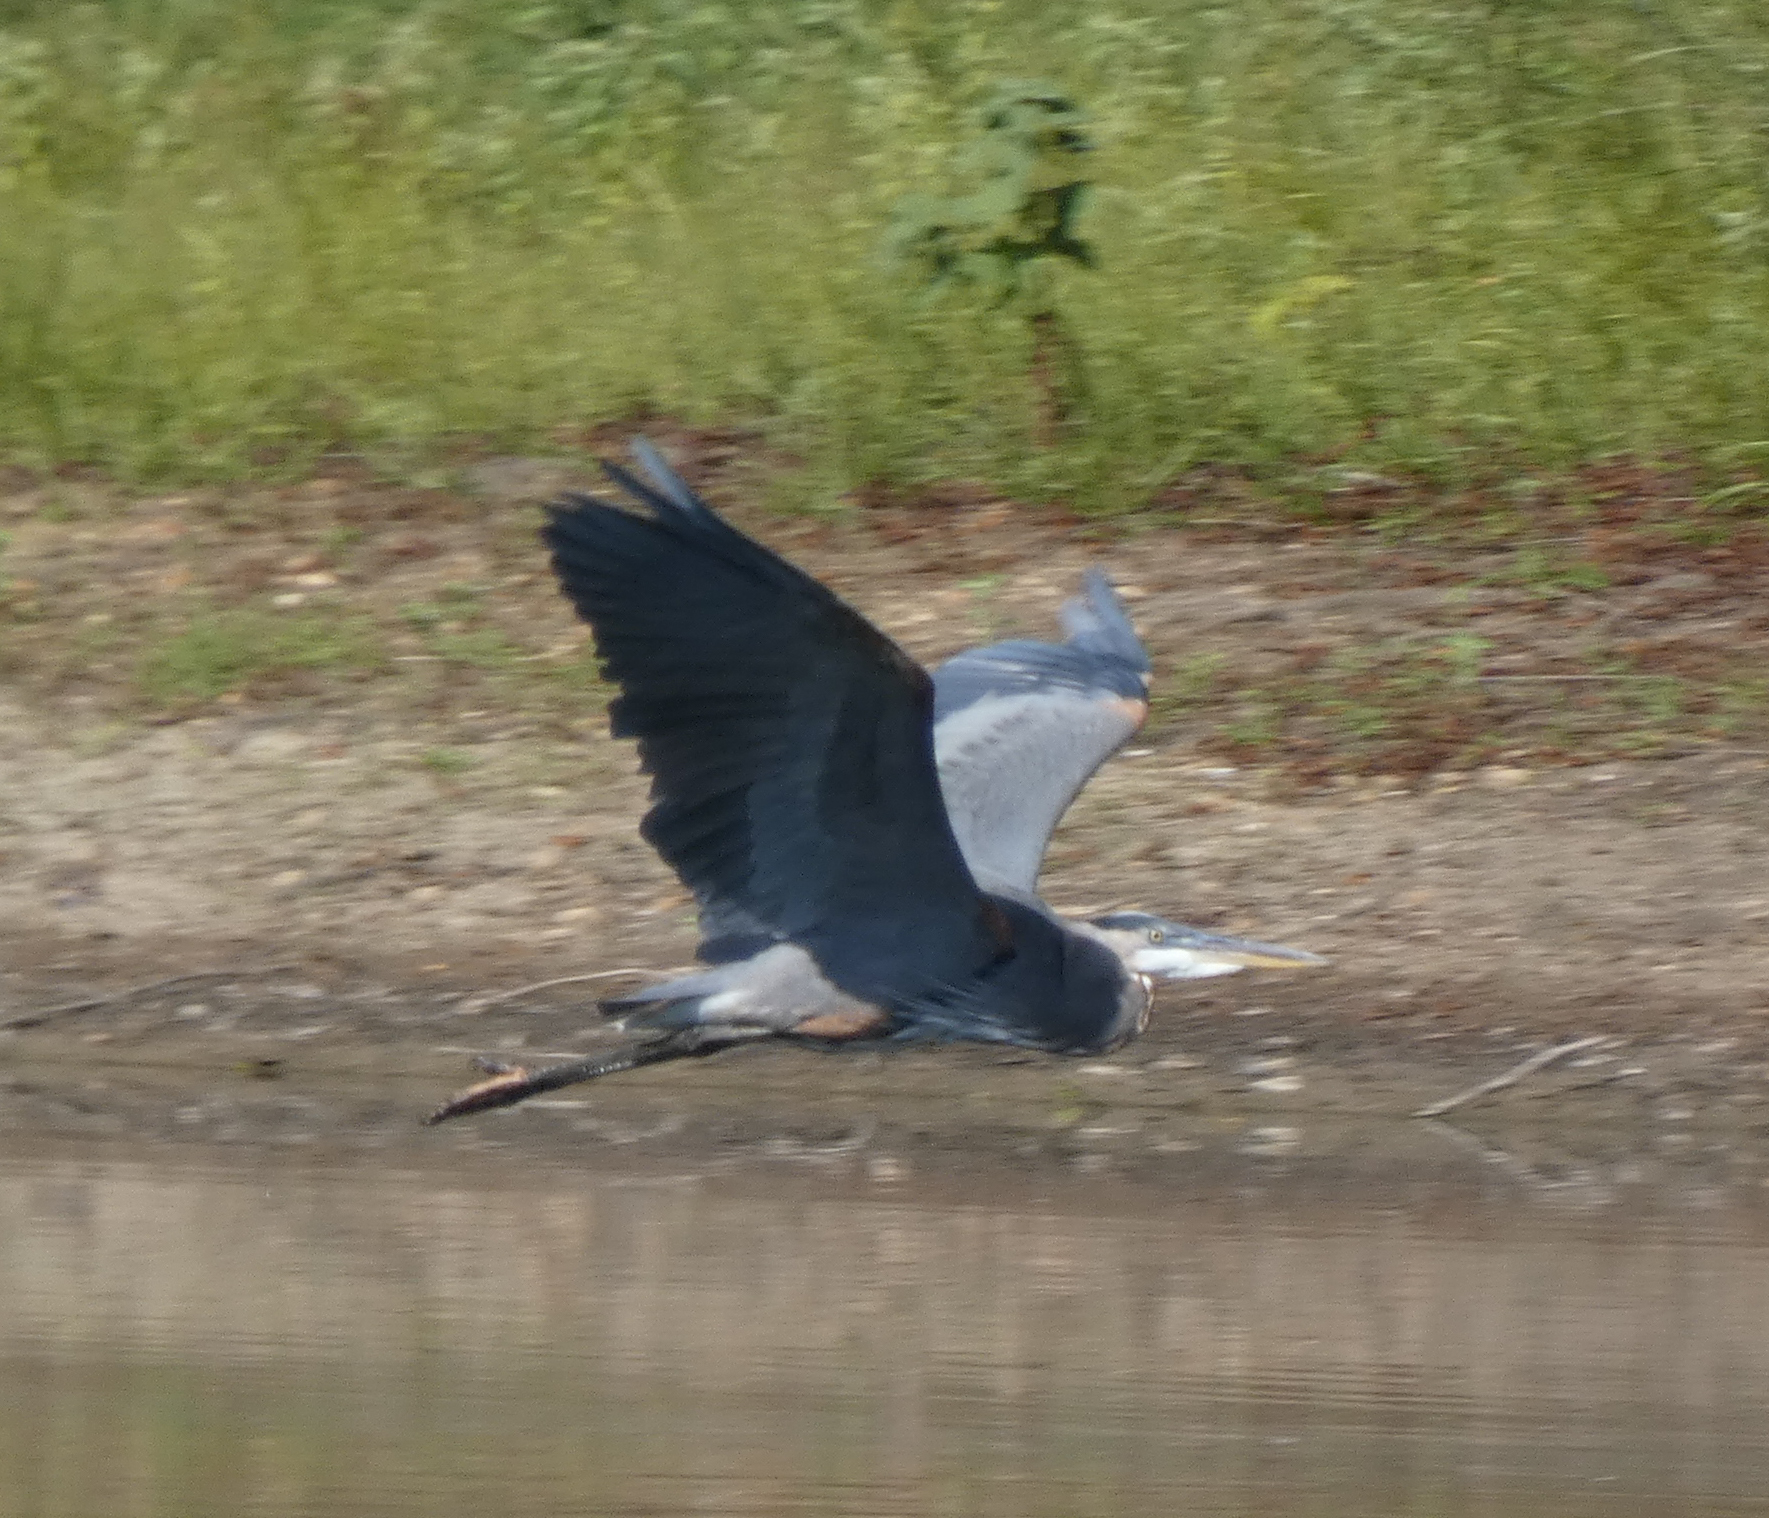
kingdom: Animalia
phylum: Chordata
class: Aves
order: Pelecaniformes
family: Ardeidae
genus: Ardea
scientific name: Ardea herodias
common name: Great blue heron
